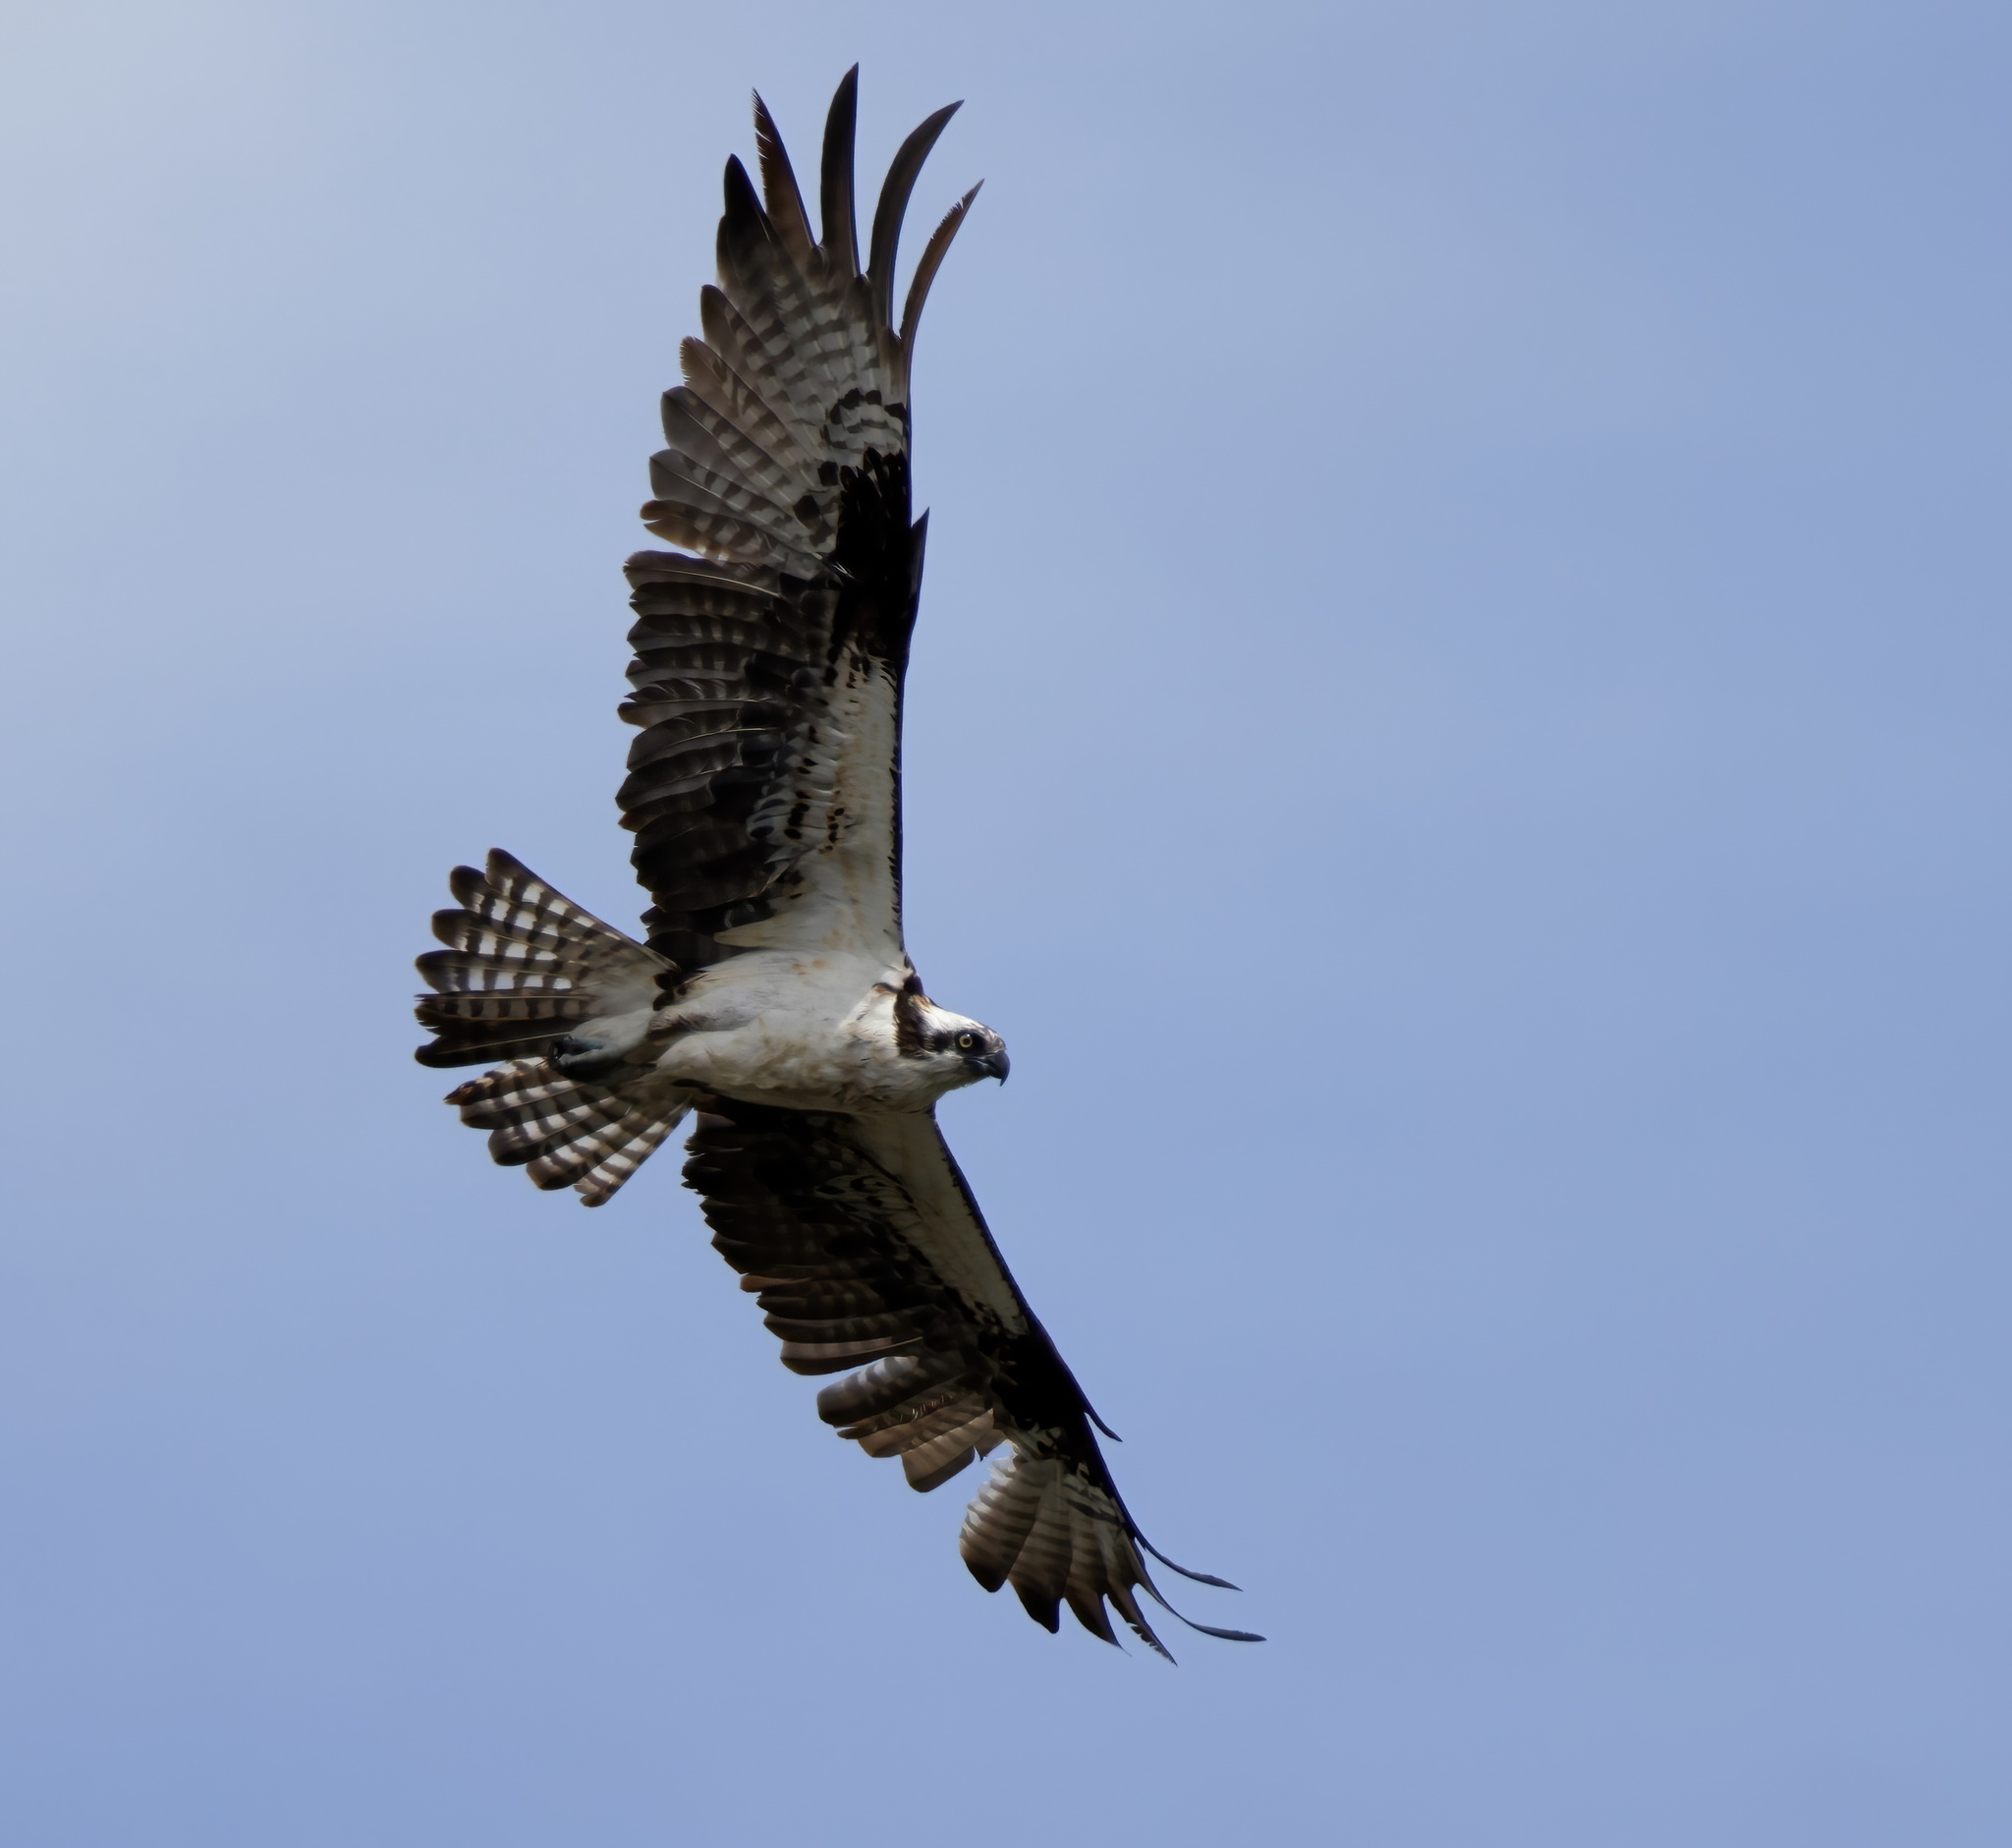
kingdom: Animalia
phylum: Chordata
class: Aves
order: Accipitriformes
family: Pandionidae
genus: Pandion
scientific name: Pandion haliaetus
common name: Osprey
